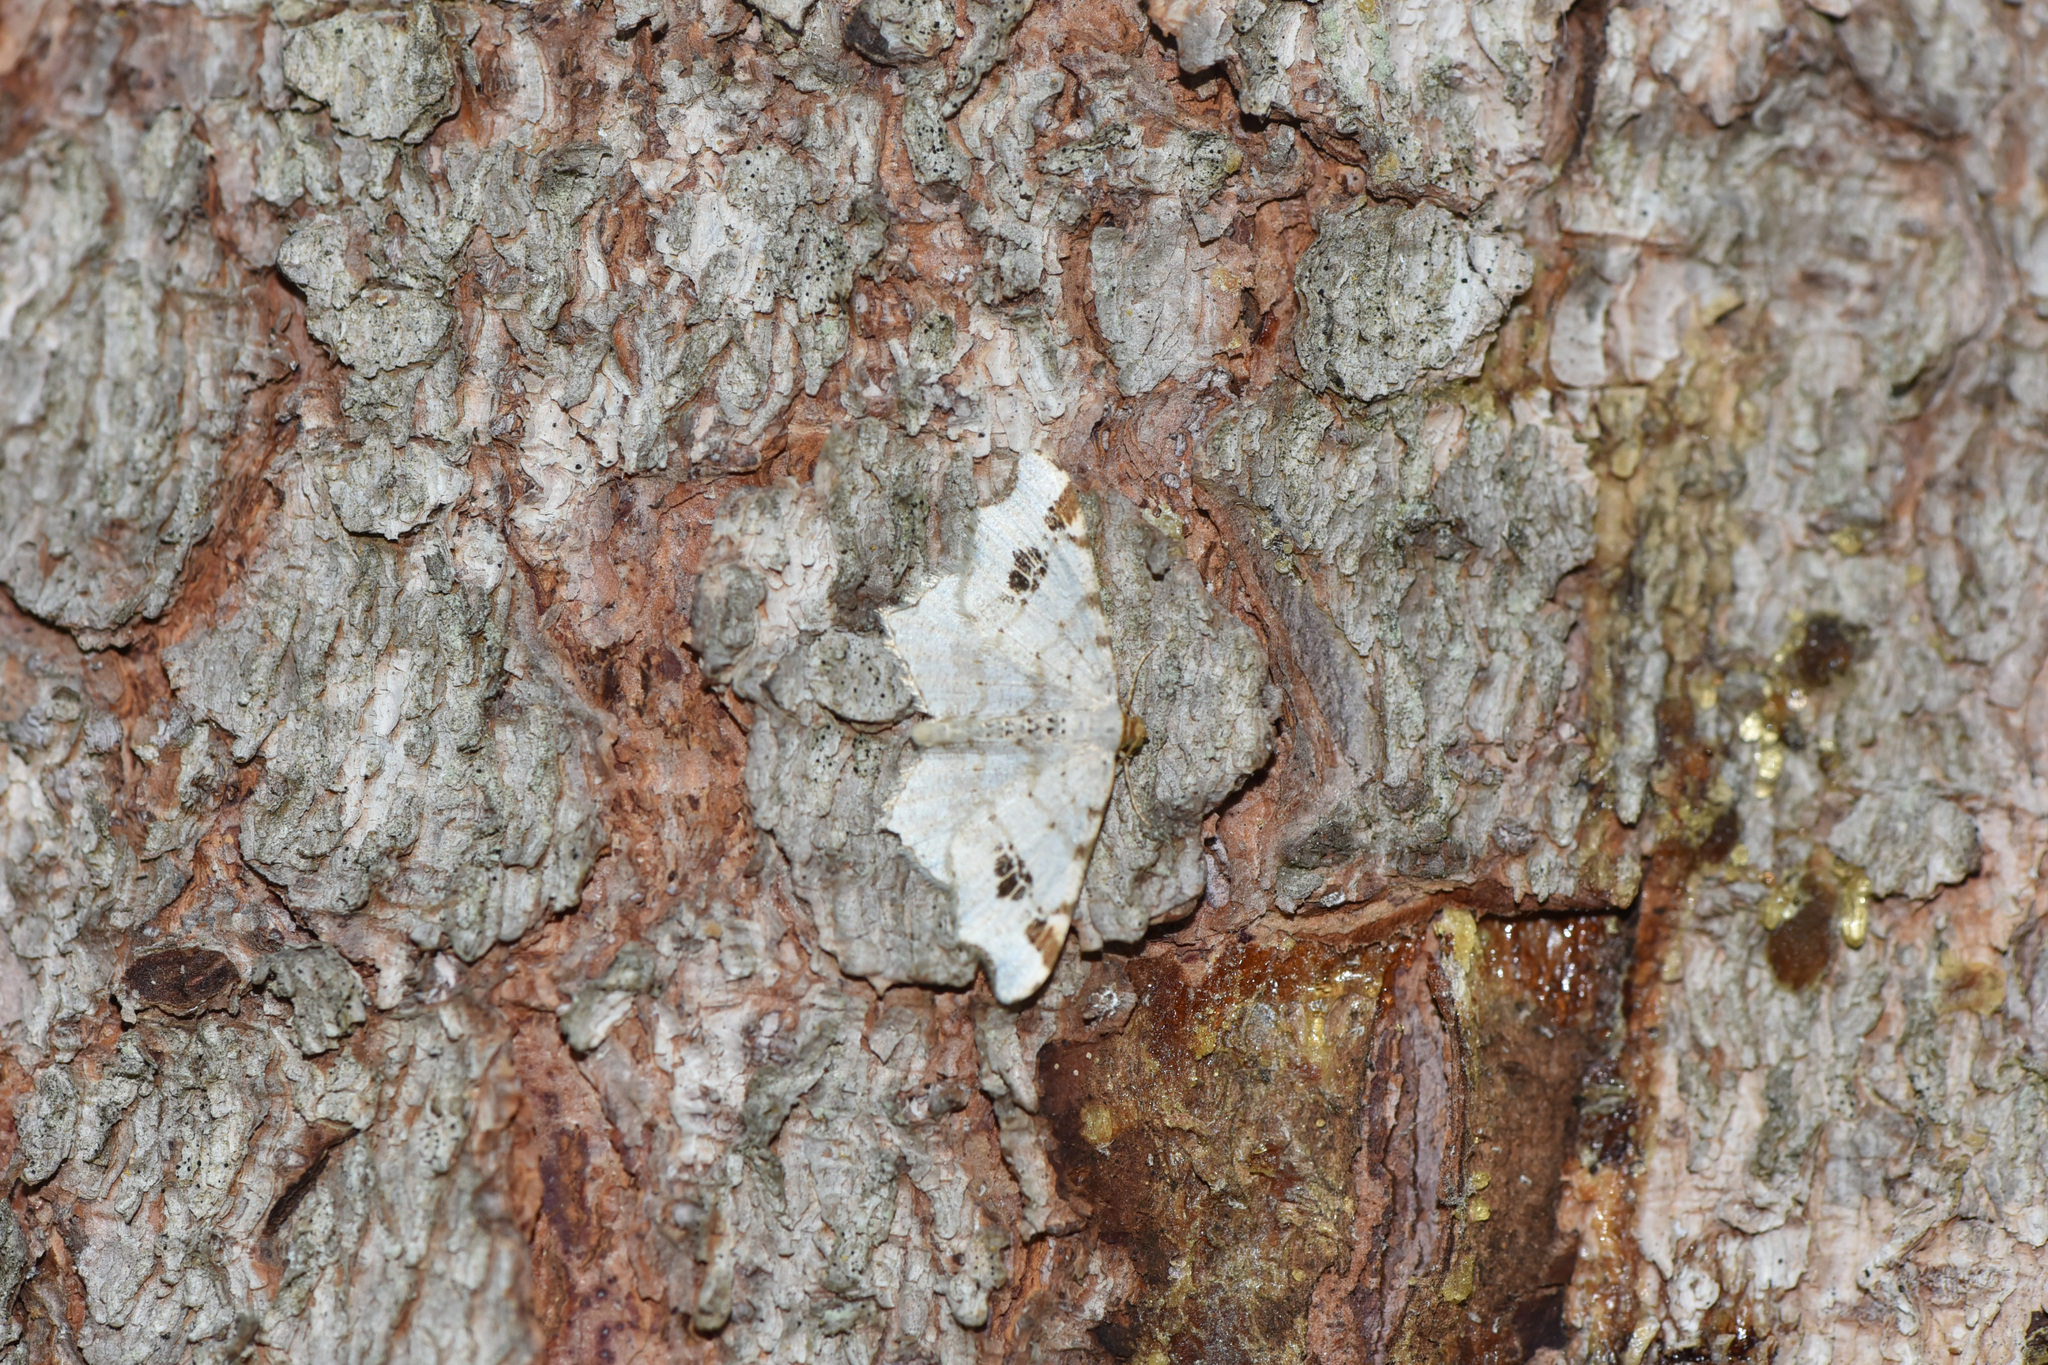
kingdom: Animalia
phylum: Arthropoda
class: Insecta
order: Lepidoptera
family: Geometridae
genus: Macaria
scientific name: Macaria ulsterata
